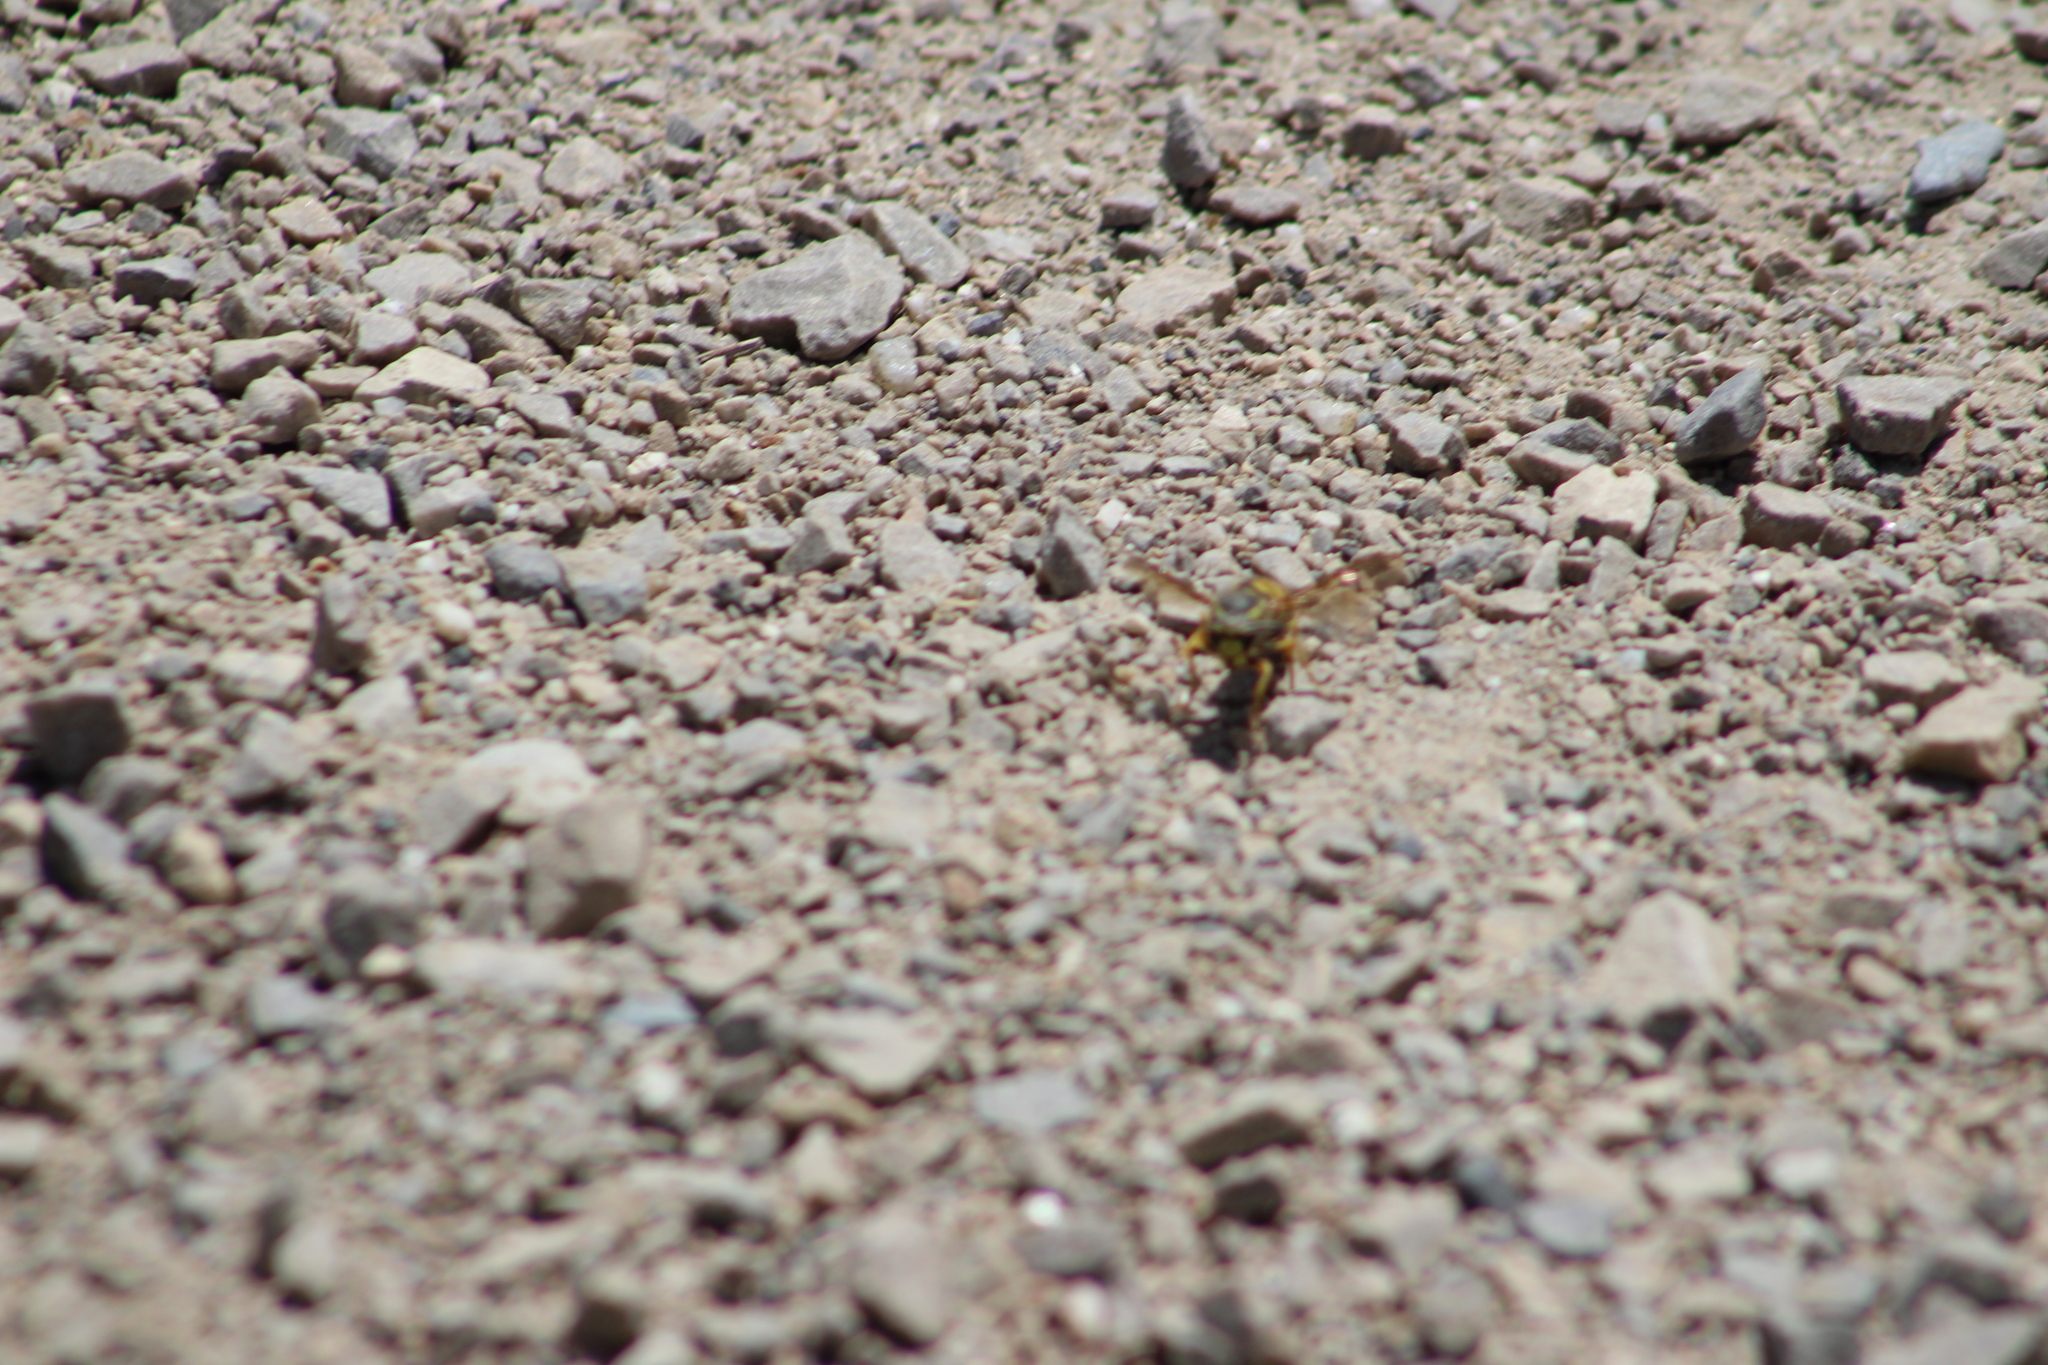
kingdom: Animalia
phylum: Arthropoda
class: Insecta
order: Hymenoptera
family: Vespidae
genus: Vespula
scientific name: Vespula pensylvanica
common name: Western yellowjacket
